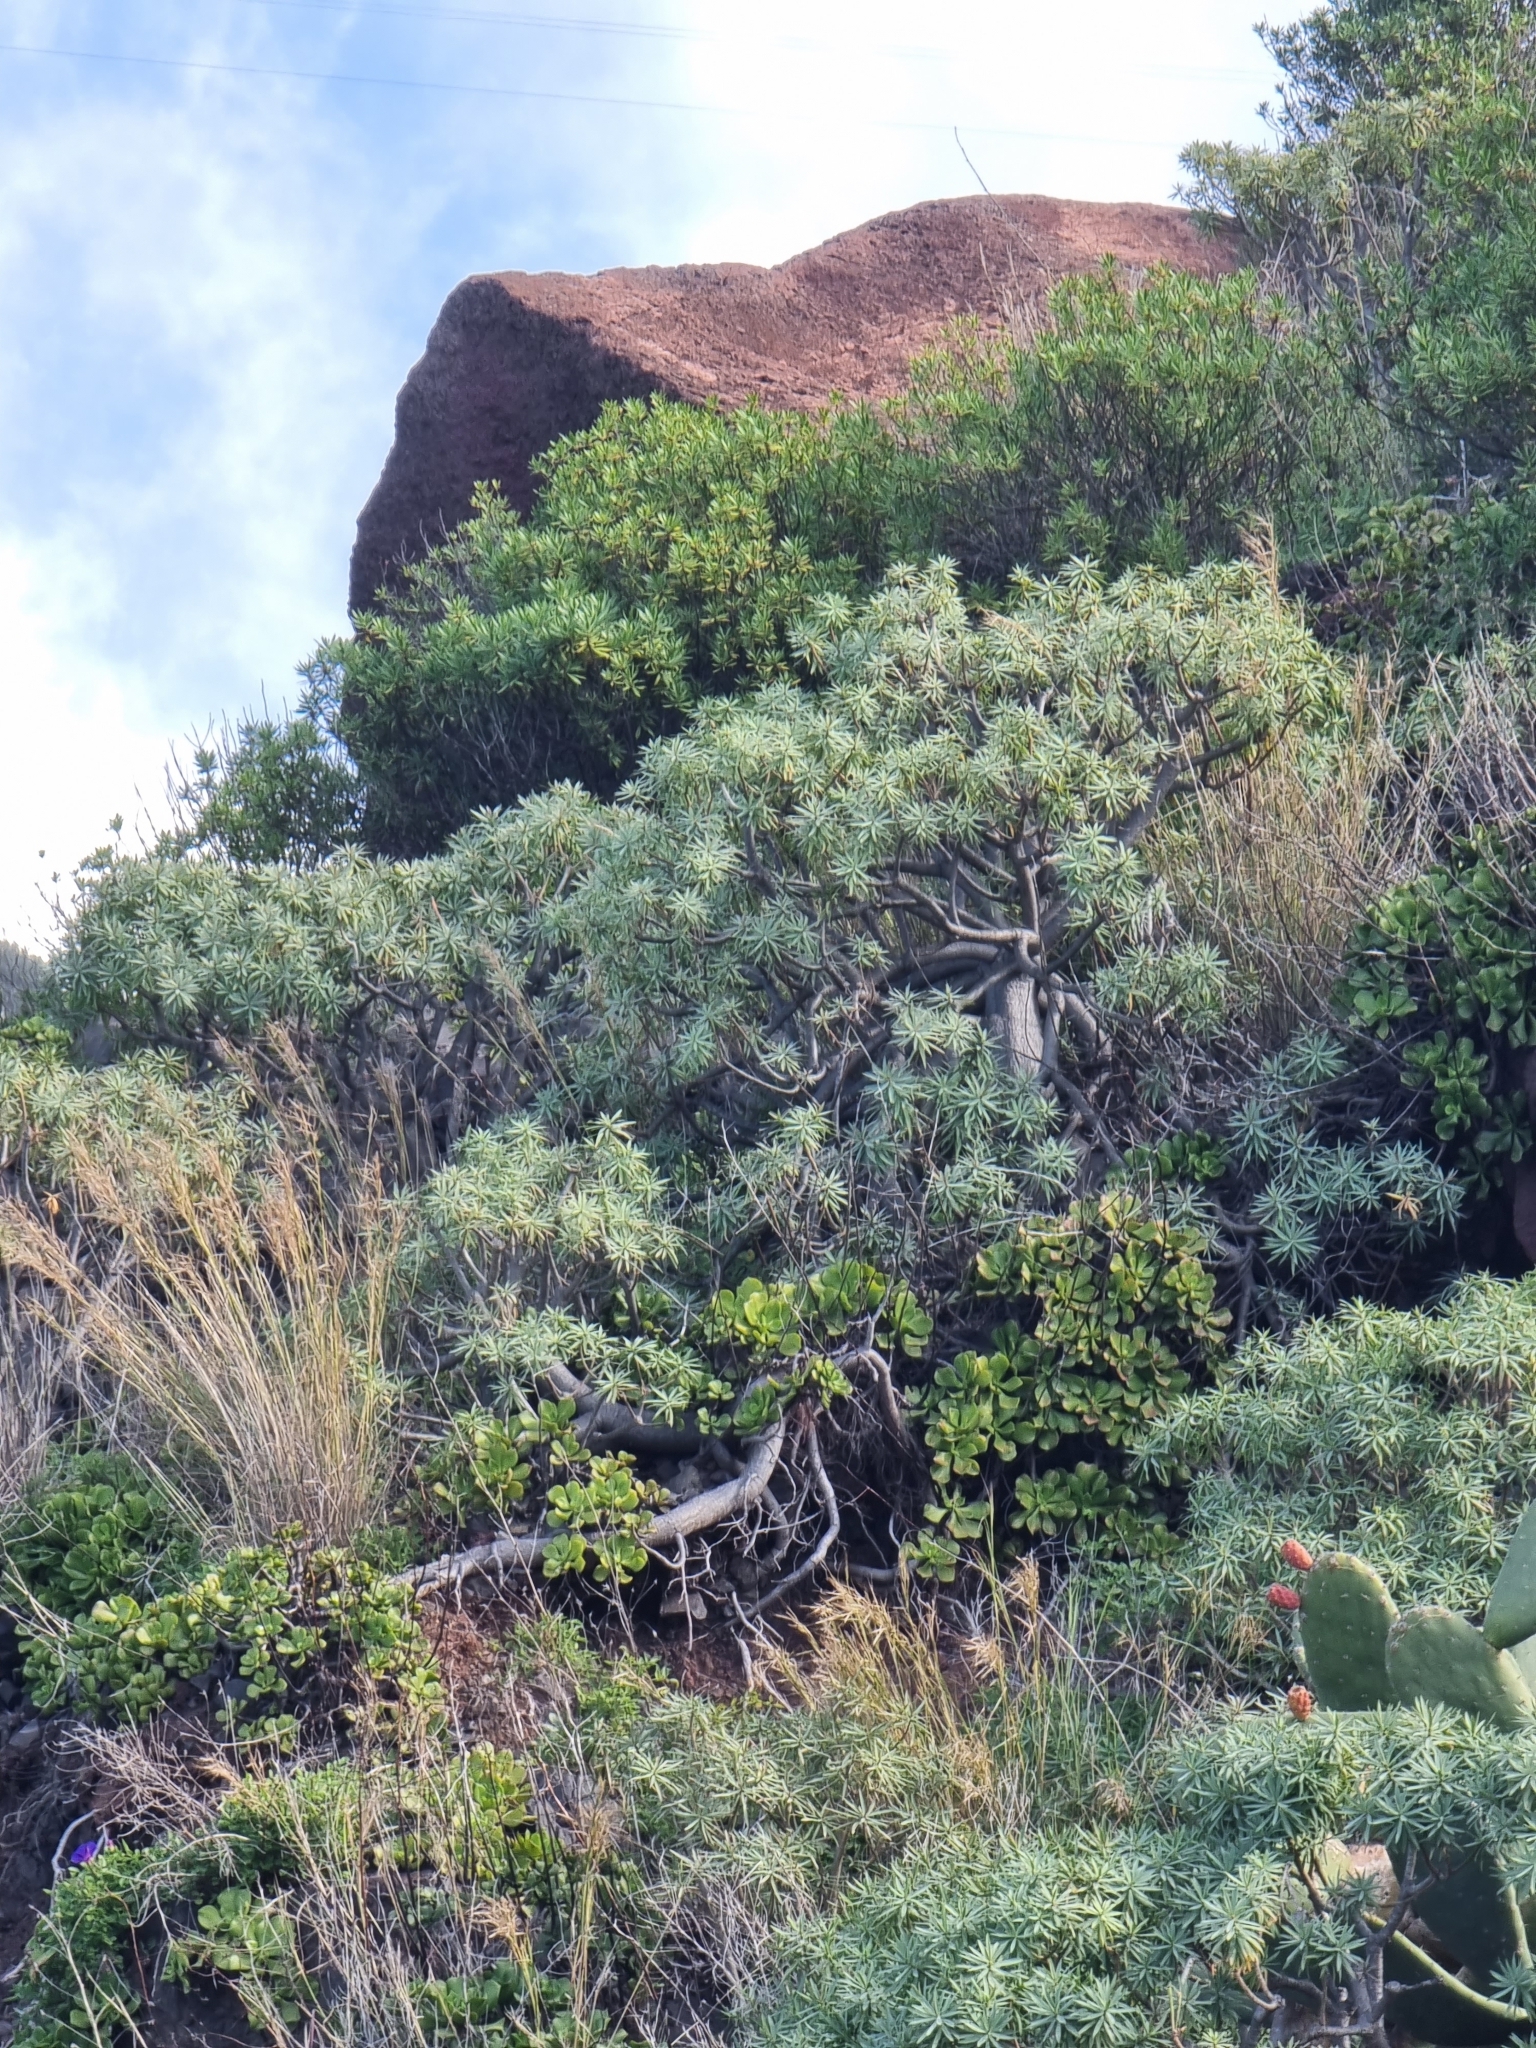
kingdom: Plantae
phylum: Tracheophyta
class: Magnoliopsida
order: Malpighiales
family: Euphorbiaceae
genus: Euphorbia
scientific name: Euphorbia piscatoria
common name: Fish-stunning spurge
